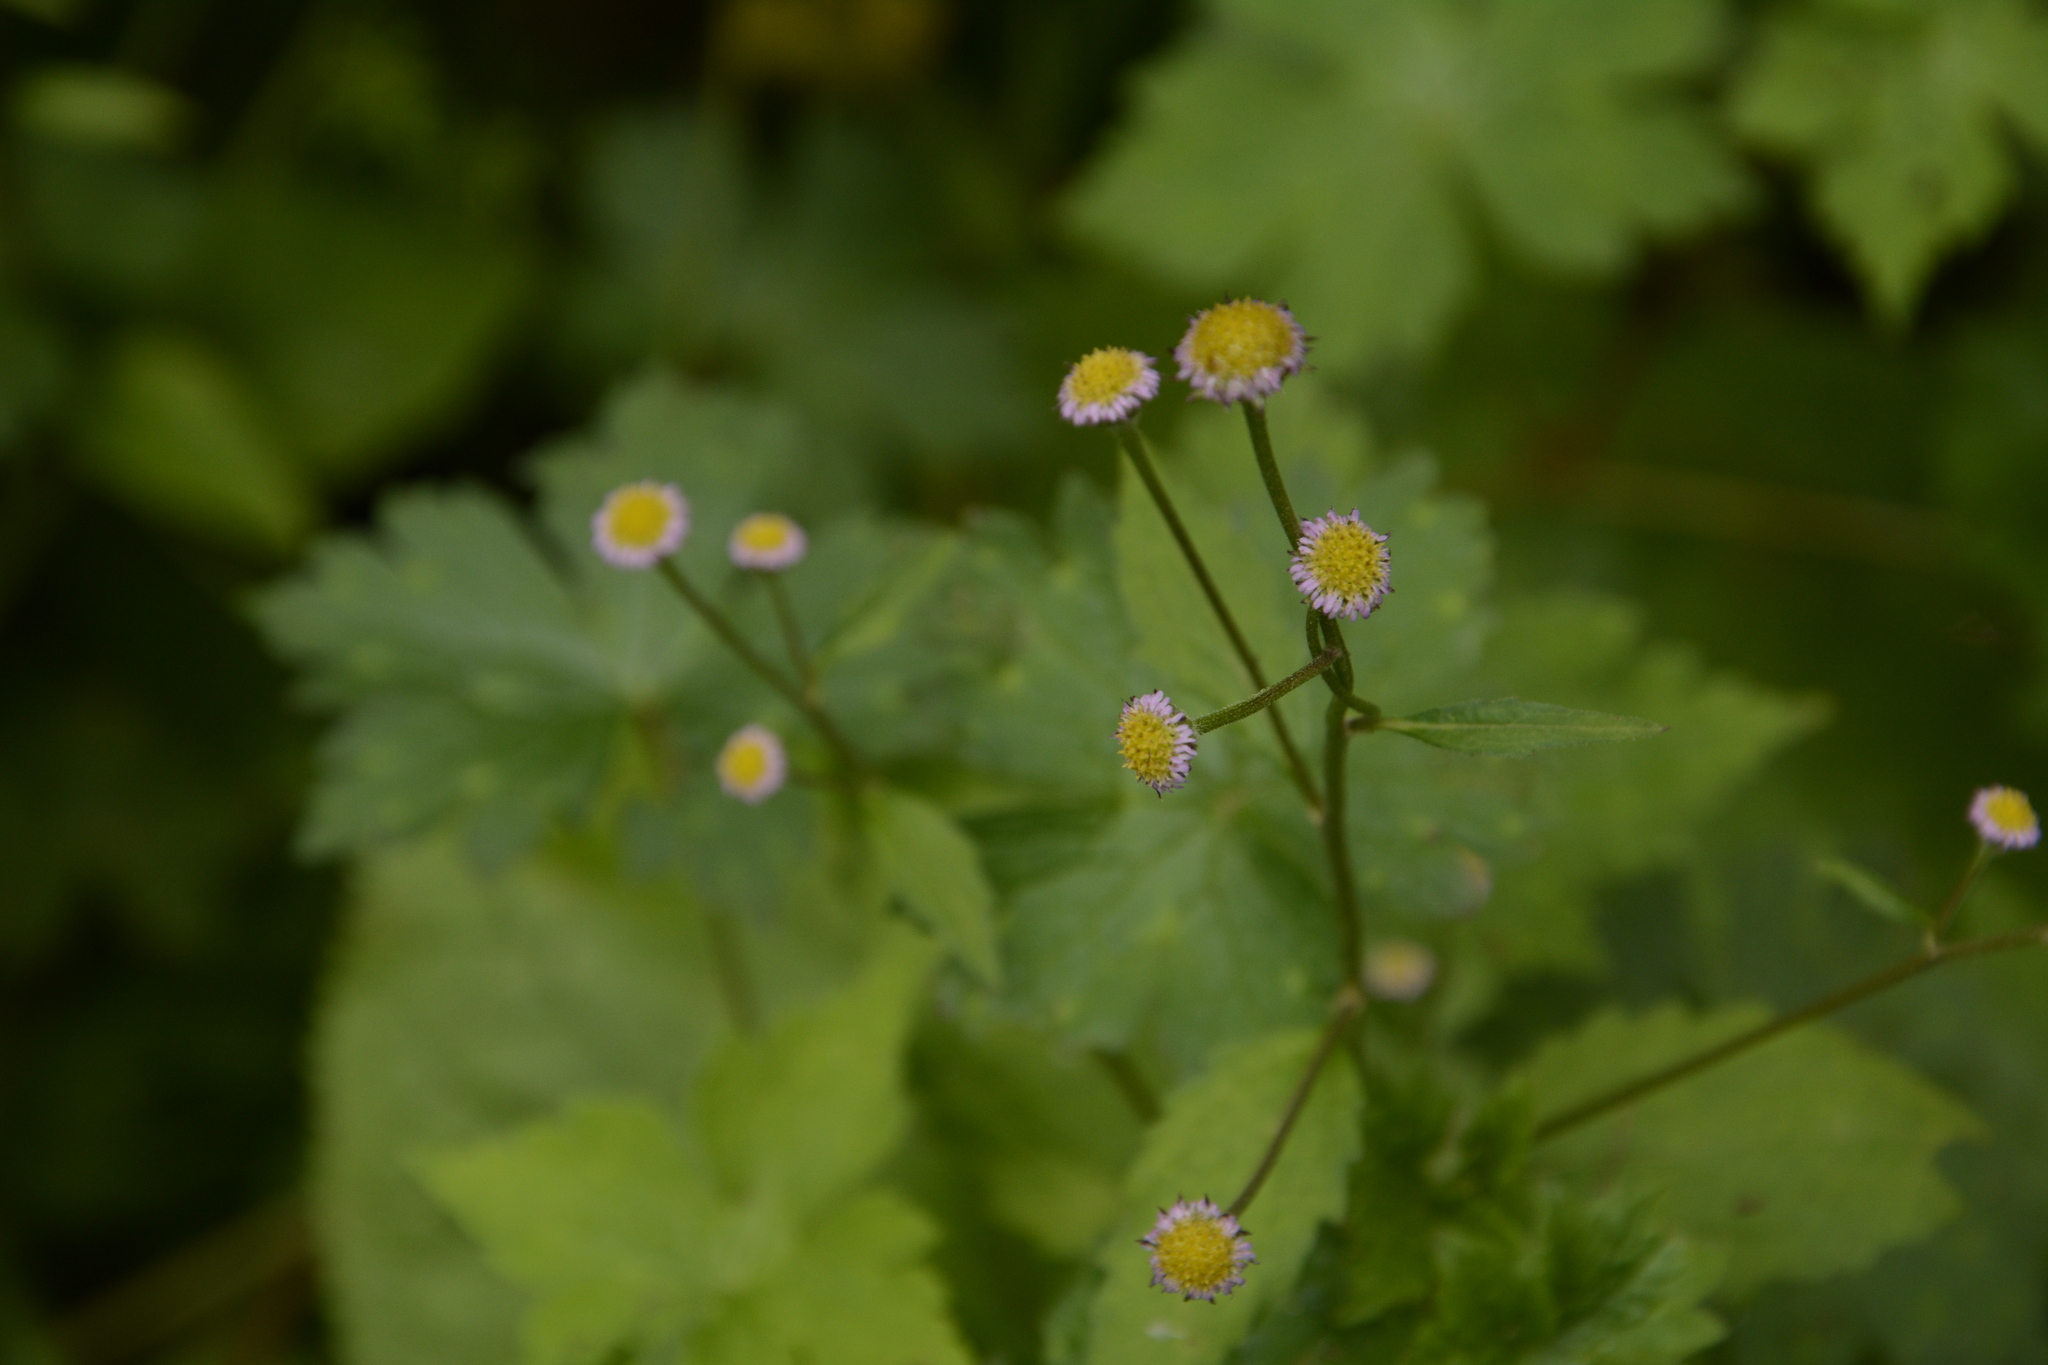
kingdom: Plantae
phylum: Tracheophyta
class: Magnoliopsida
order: Asterales
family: Asteraceae
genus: Myriactis
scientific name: Myriactis wallichii
